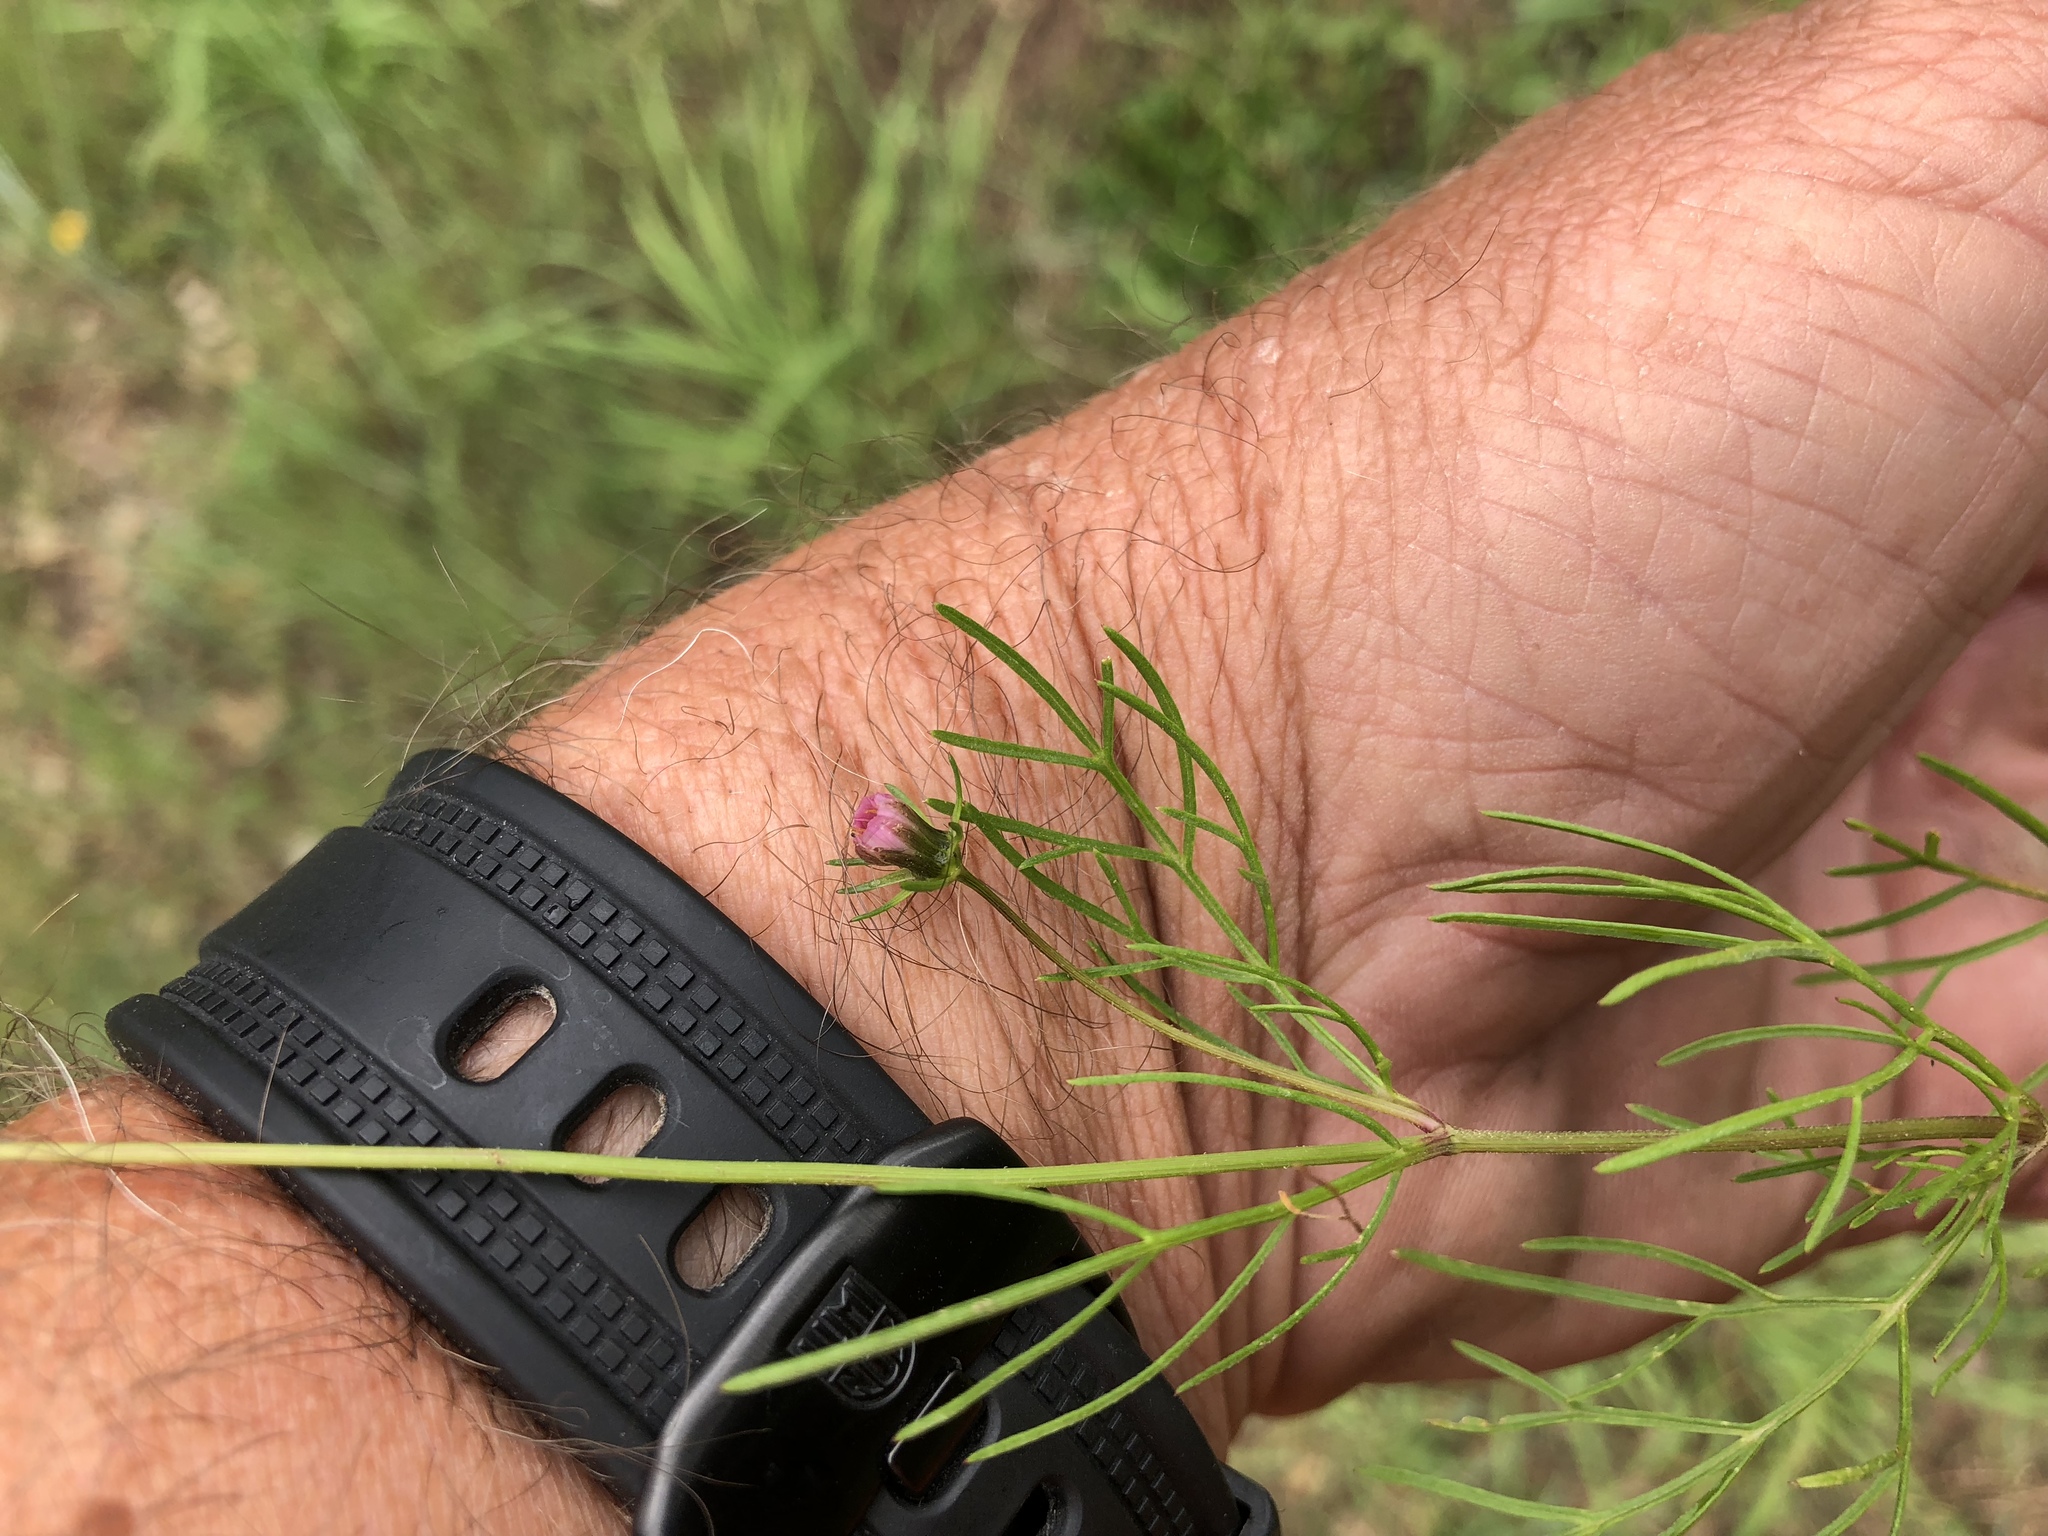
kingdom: Plantae
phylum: Tracheophyta
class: Magnoliopsida
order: Asterales
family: Asteraceae
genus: Cosmos
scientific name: Cosmos parviflorus
